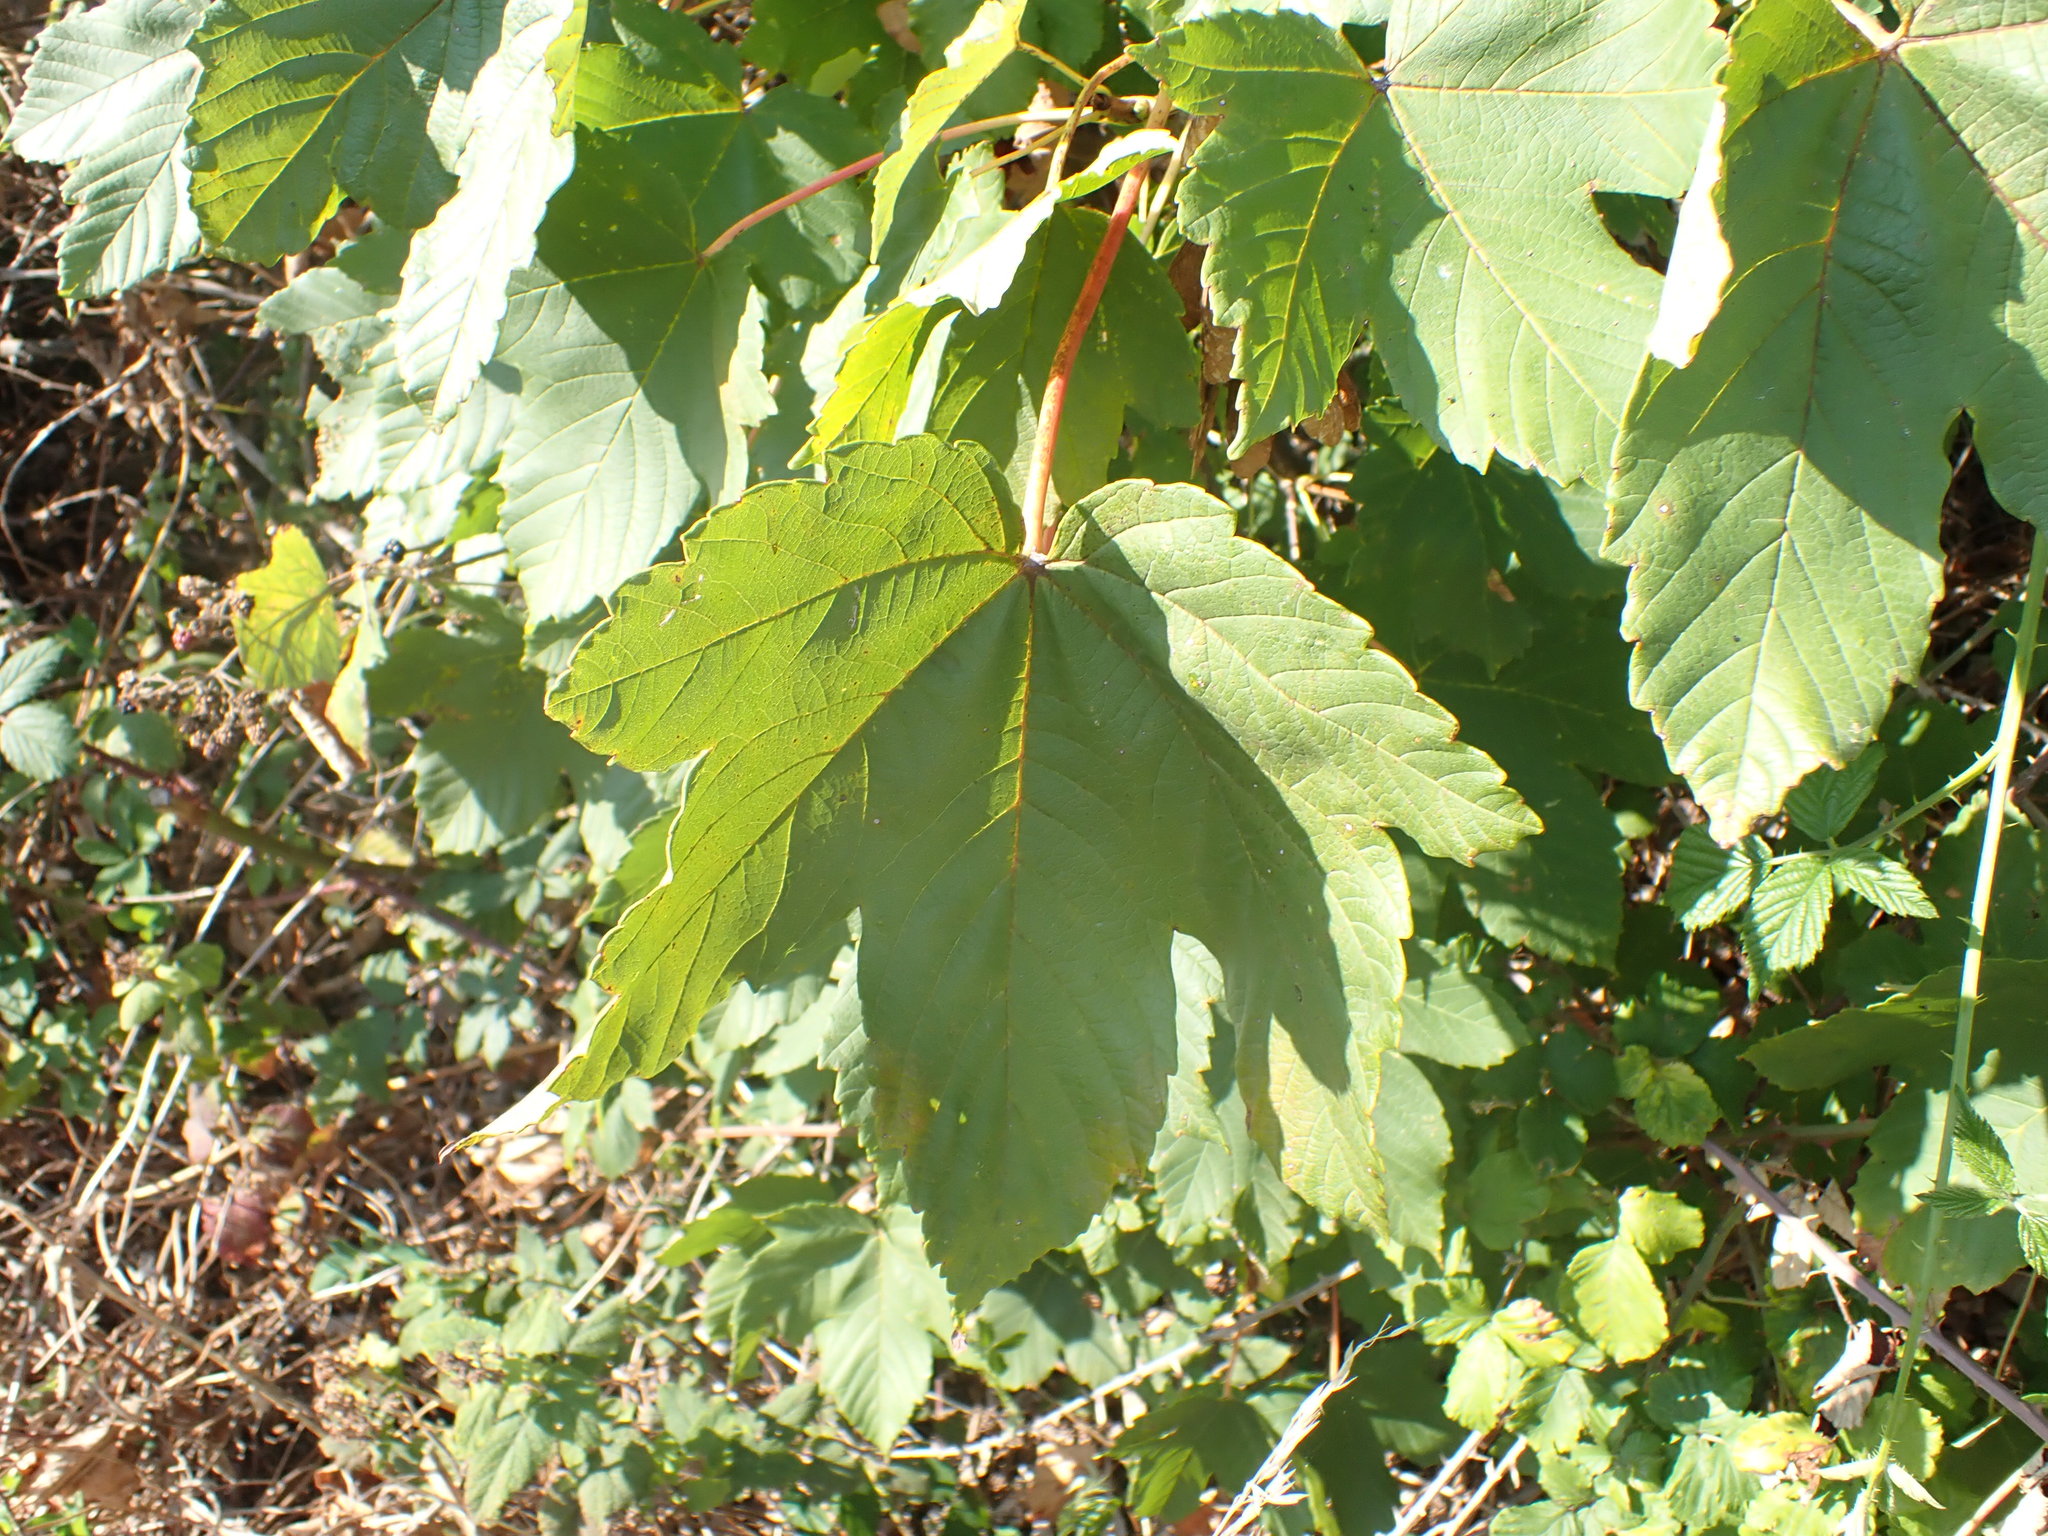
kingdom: Plantae
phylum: Tracheophyta
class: Magnoliopsida
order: Sapindales
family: Sapindaceae
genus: Acer
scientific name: Acer pseudoplatanus
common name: Sycamore
